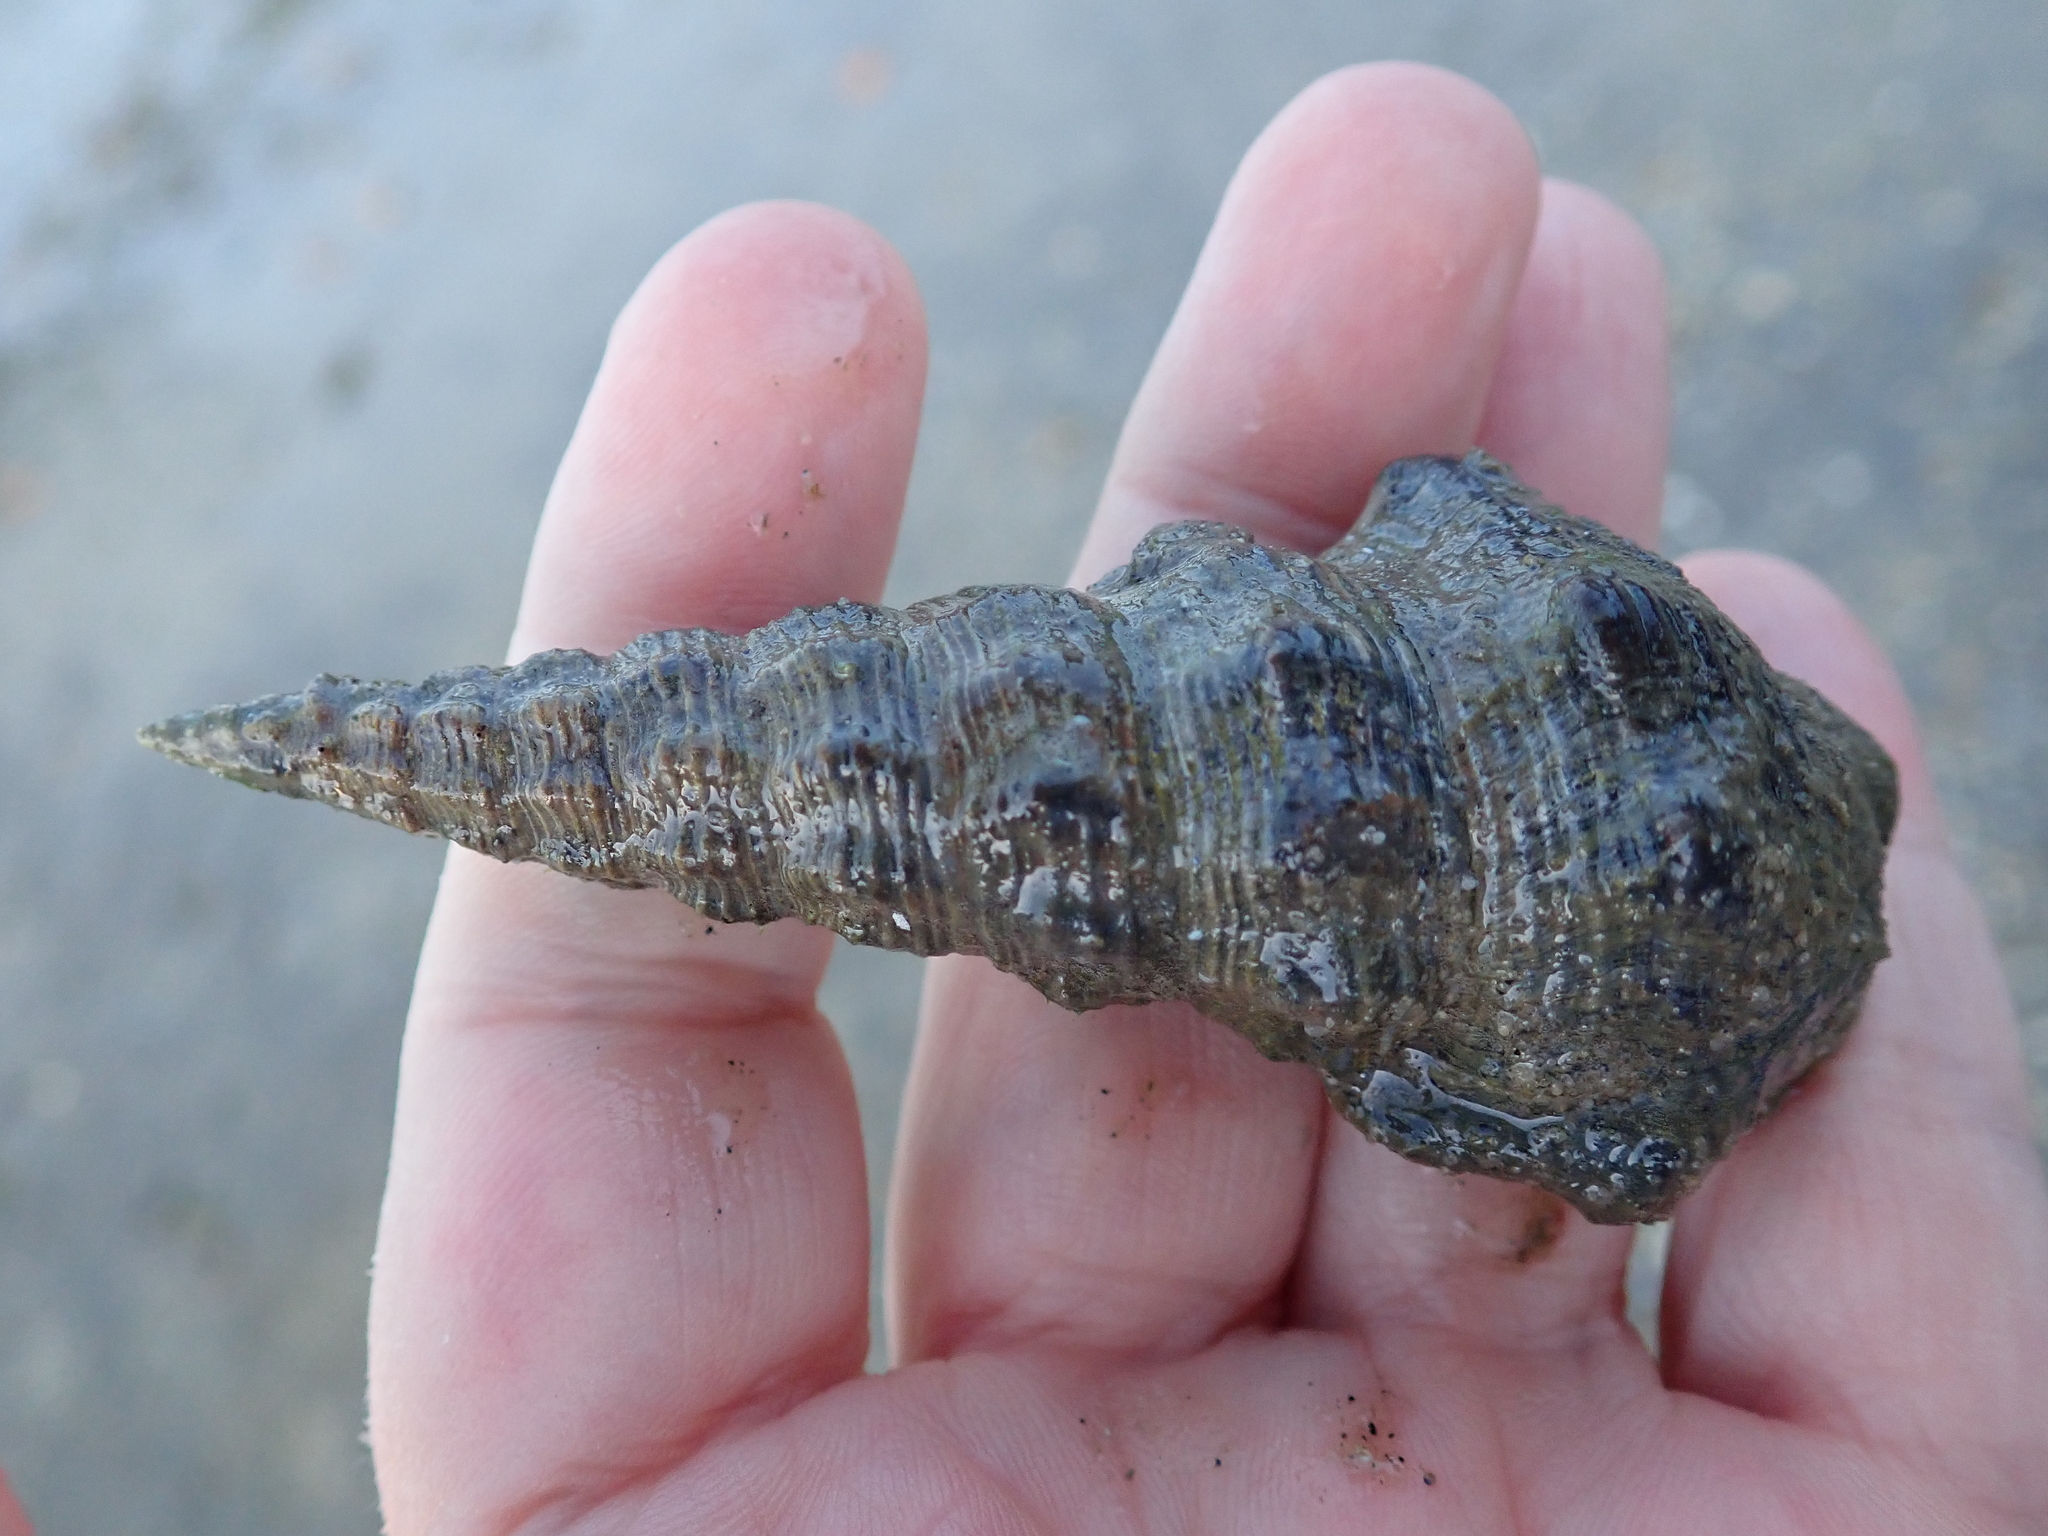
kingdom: Animalia
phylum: Mollusca
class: Gastropoda
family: Batillariidae
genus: Pyrazus
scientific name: Pyrazus ebeninus
